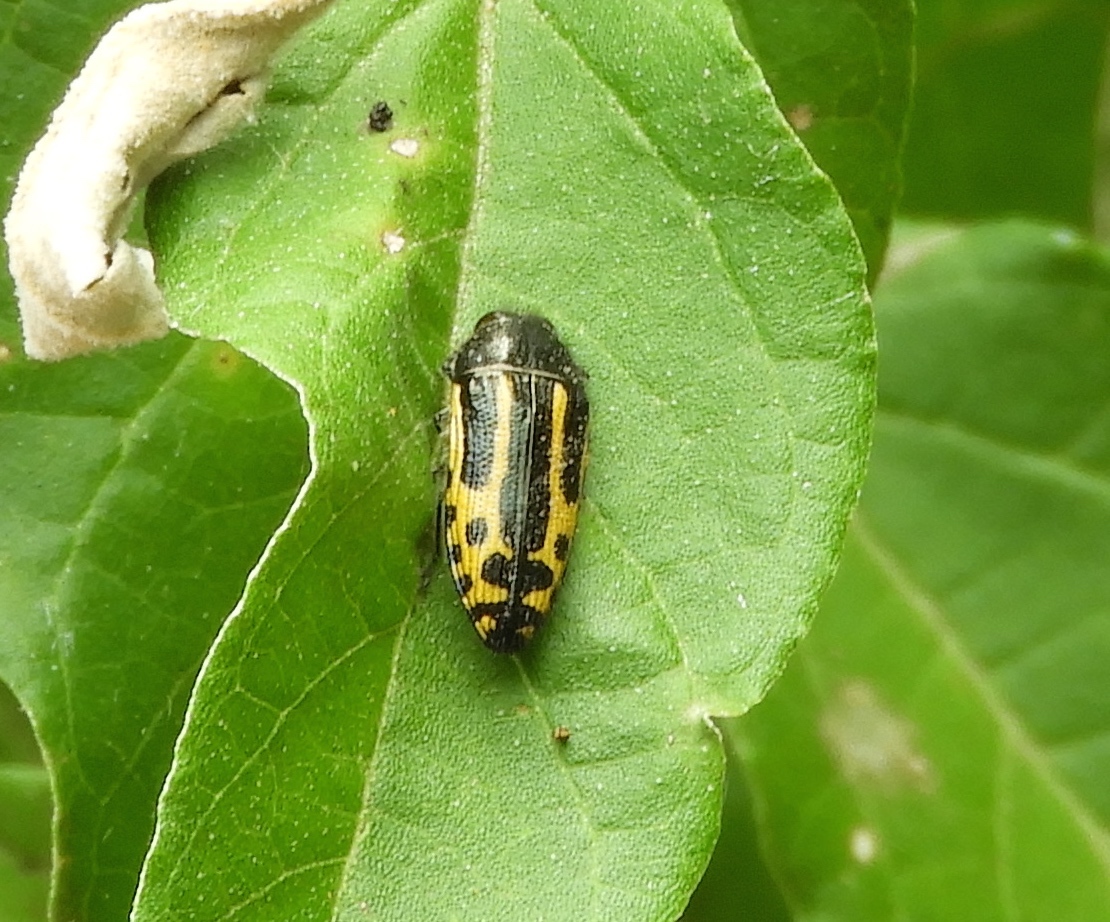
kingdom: Animalia
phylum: Arthropoda
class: Insecta
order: Coleoptera
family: Buprestidae
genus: Acmaeodera
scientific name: Acmaeodera scalaris
